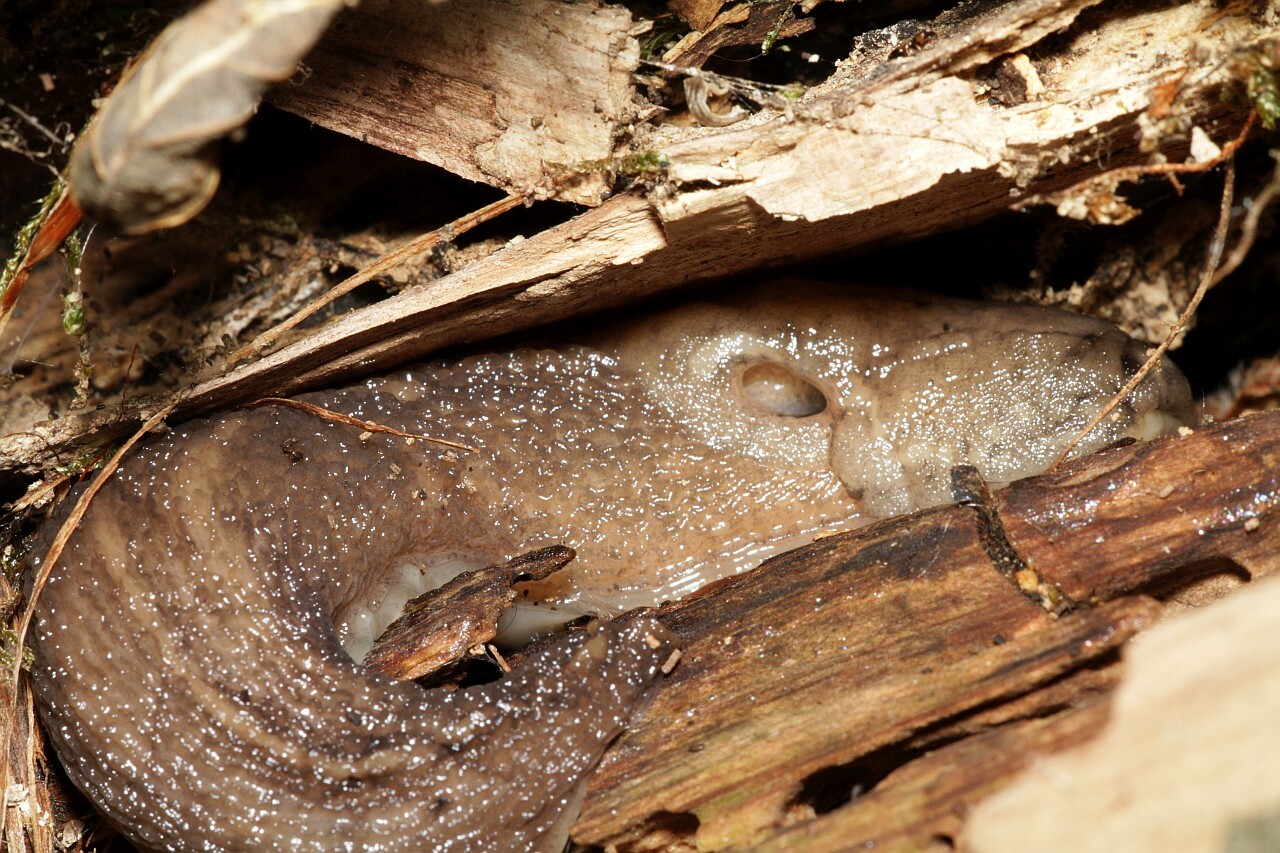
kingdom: Animalia
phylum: Mollusca
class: Gastropoda
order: Stylommatophora
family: Limacidae
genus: Limax
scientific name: Limax maximus
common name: Great grey slug
